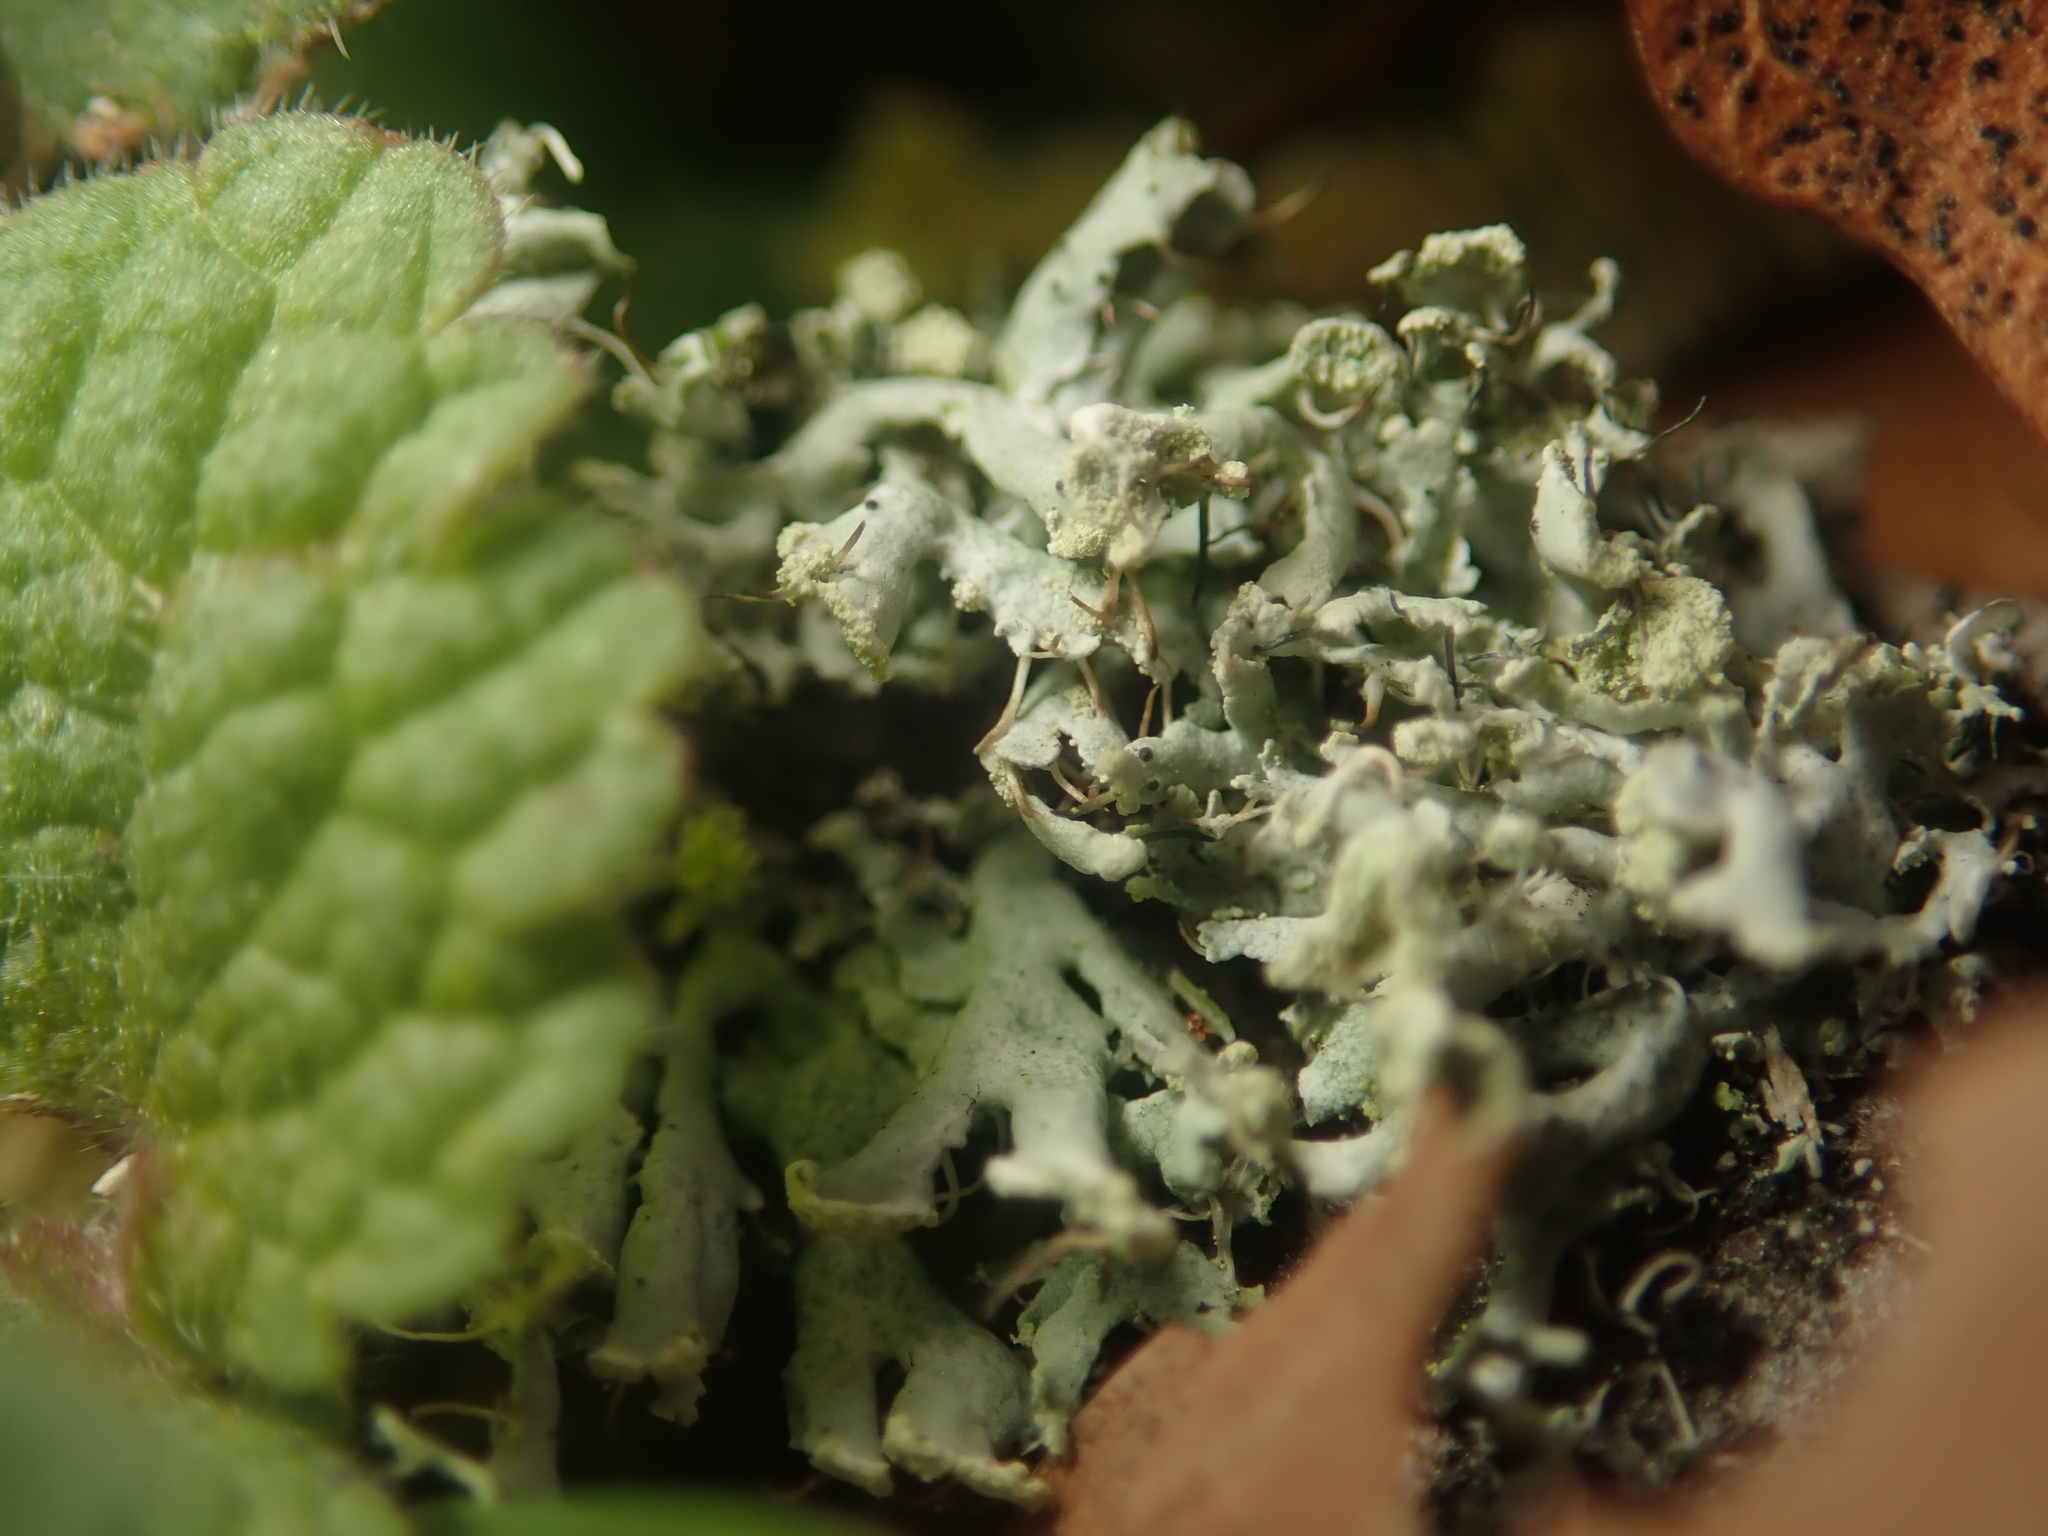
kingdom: Fungi
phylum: Ascomycota
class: Lecanoromycetes
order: Caliciales
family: Physciaceae
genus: Physcia
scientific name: Physcia adscendens
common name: Hooded rosette lichen
